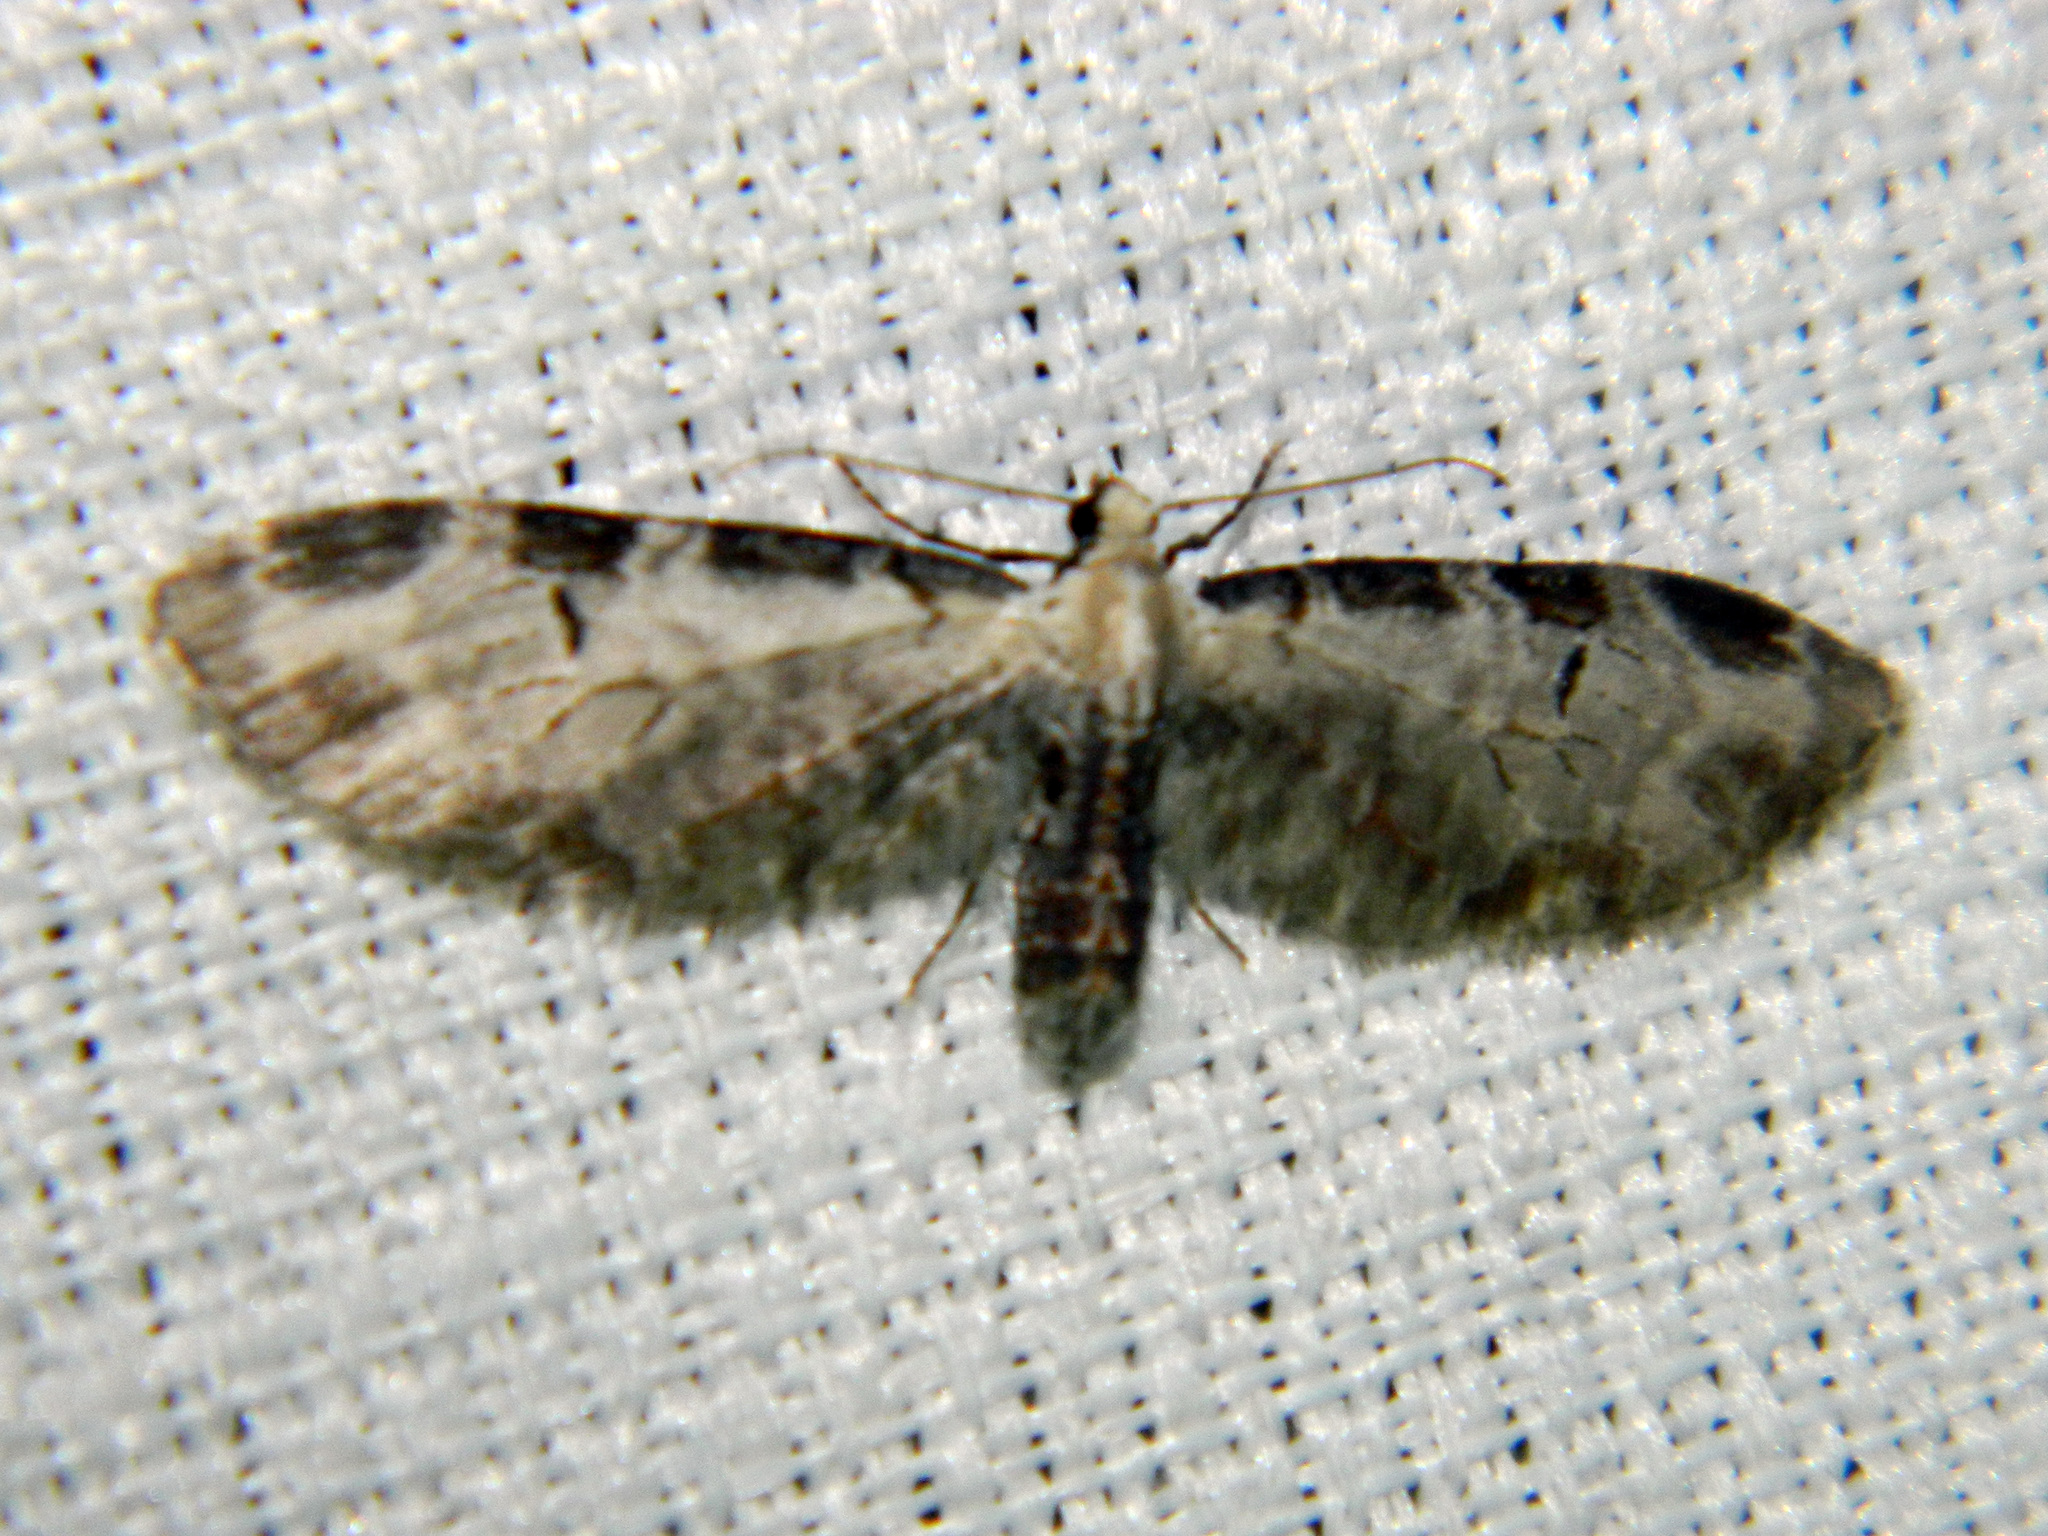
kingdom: Animalia
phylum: Arthropoda
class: Insecta
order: Lepidoptera
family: Geometridae
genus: Eupithecia
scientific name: Eupithecia ravocostaliata
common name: Great varigated pug
